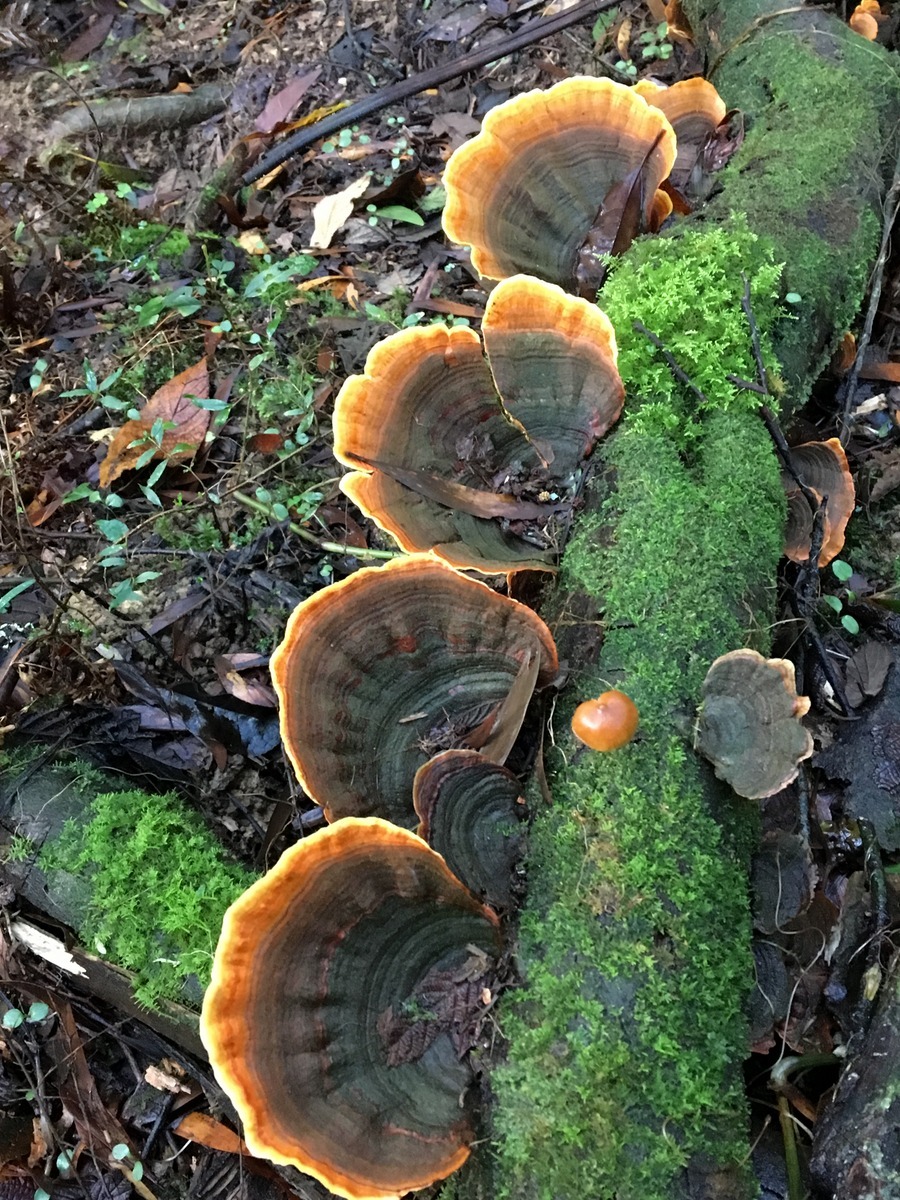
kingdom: Fungi
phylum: Basidiomycota
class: Agaricomycetes
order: Russulales
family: Stereaceae
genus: Stereum
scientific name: Stereum versicolor
